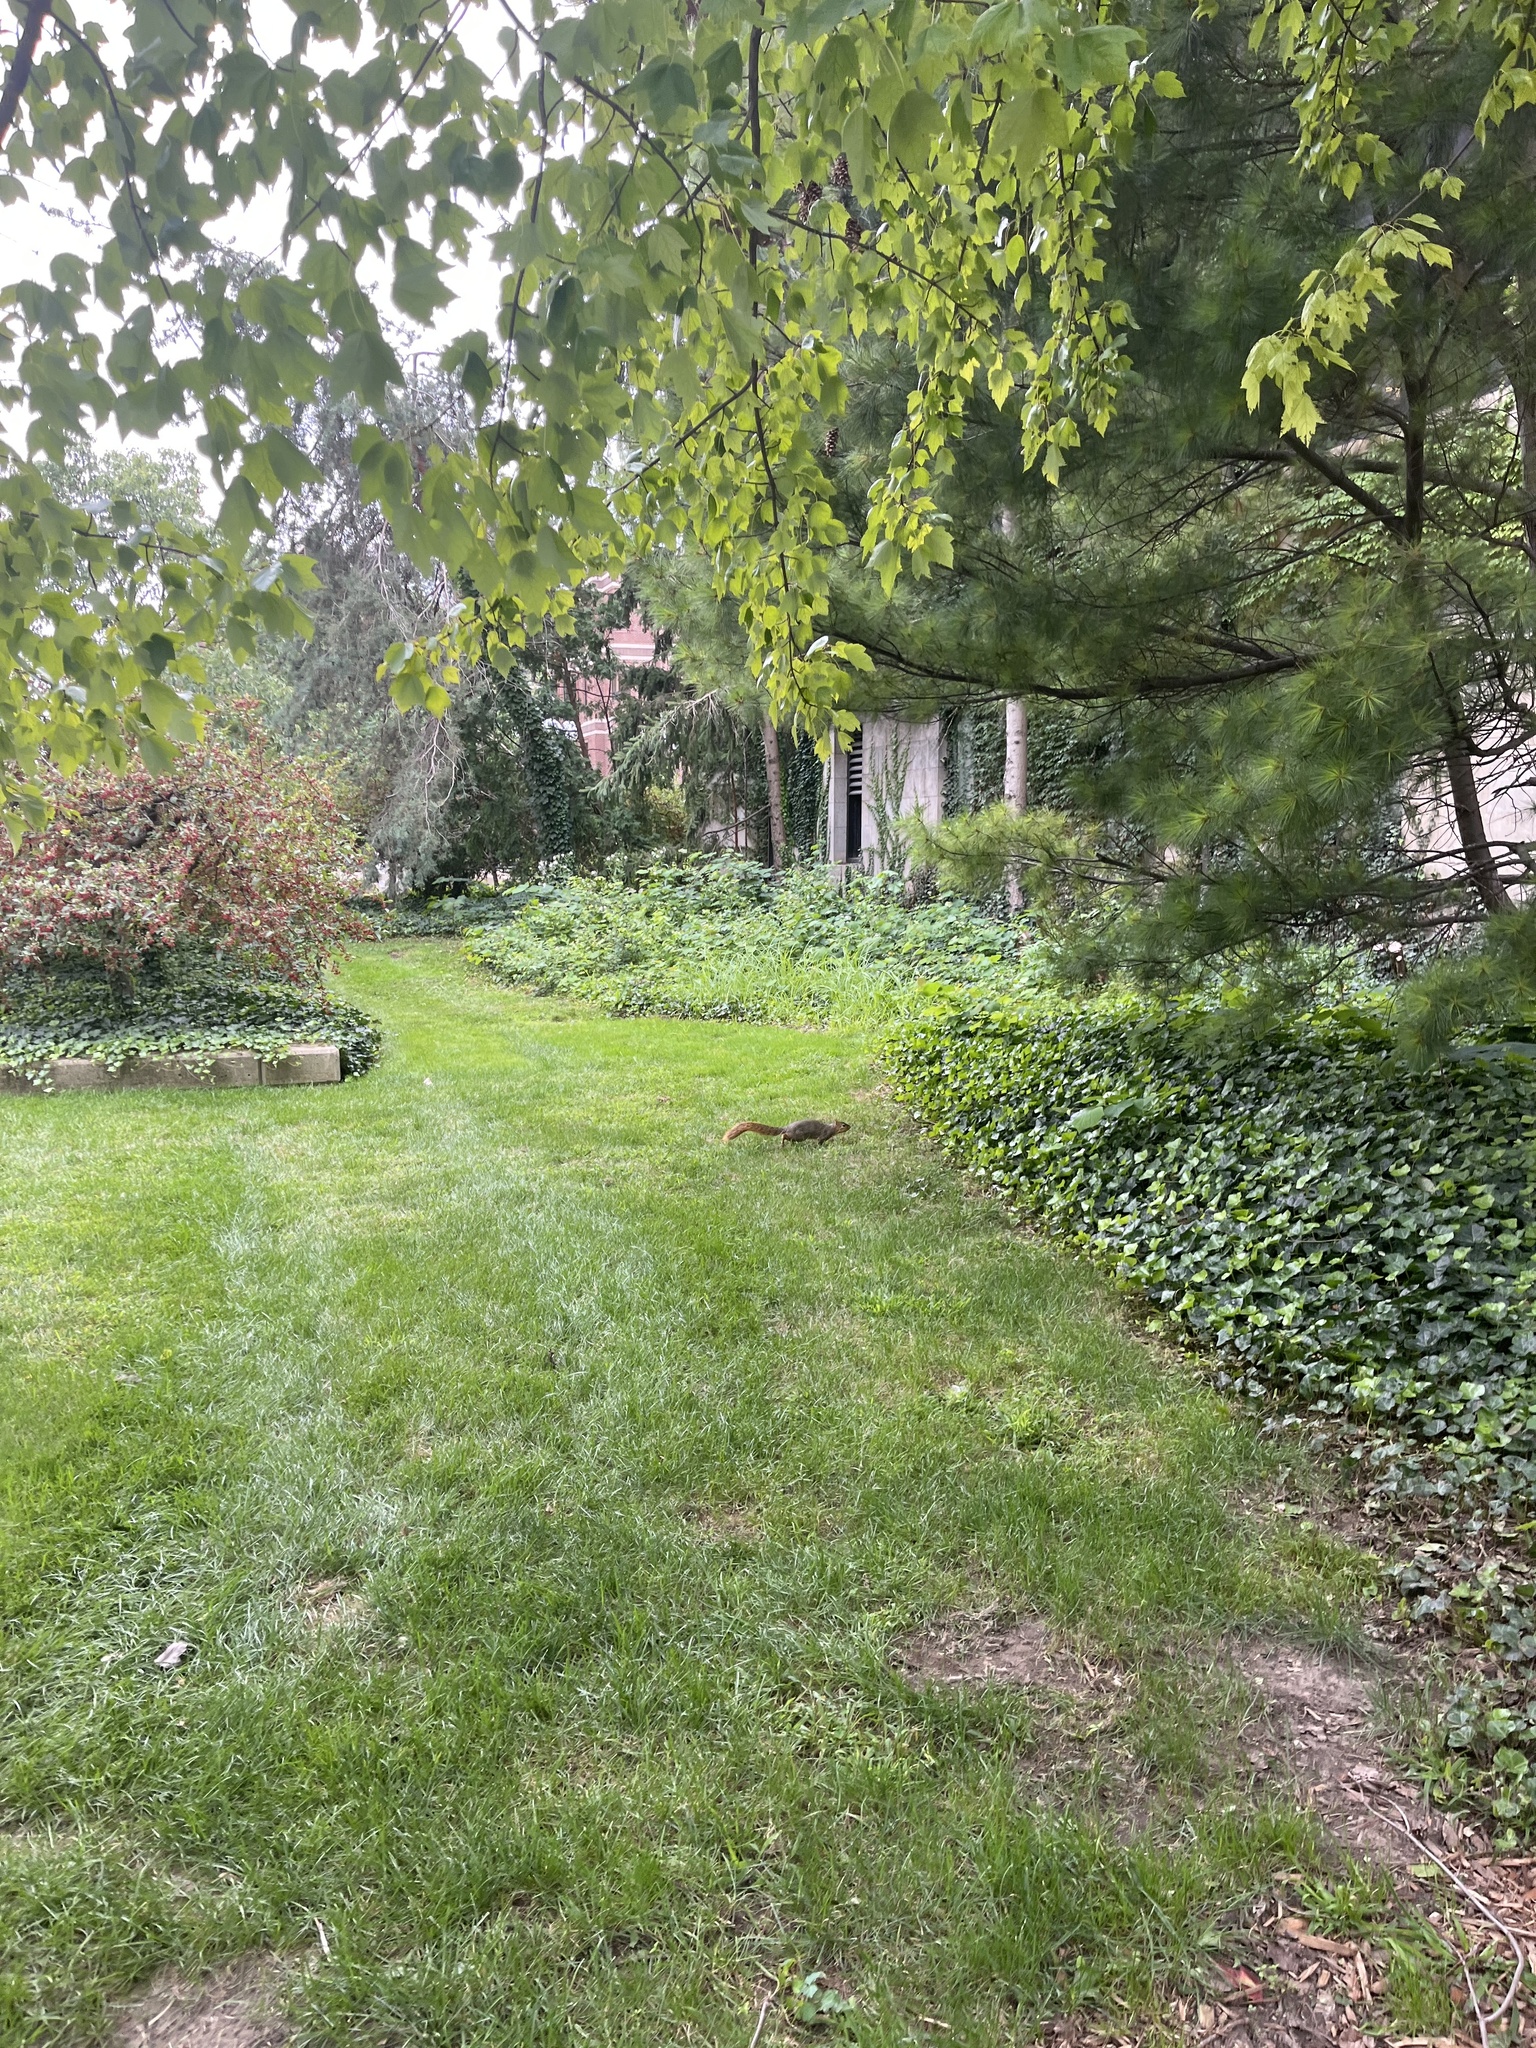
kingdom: Animalia
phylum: Chordata
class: Mammalia
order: Rodentia
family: Sciuridae
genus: Sciurus
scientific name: Sciurus niger
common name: Fox squirrel
